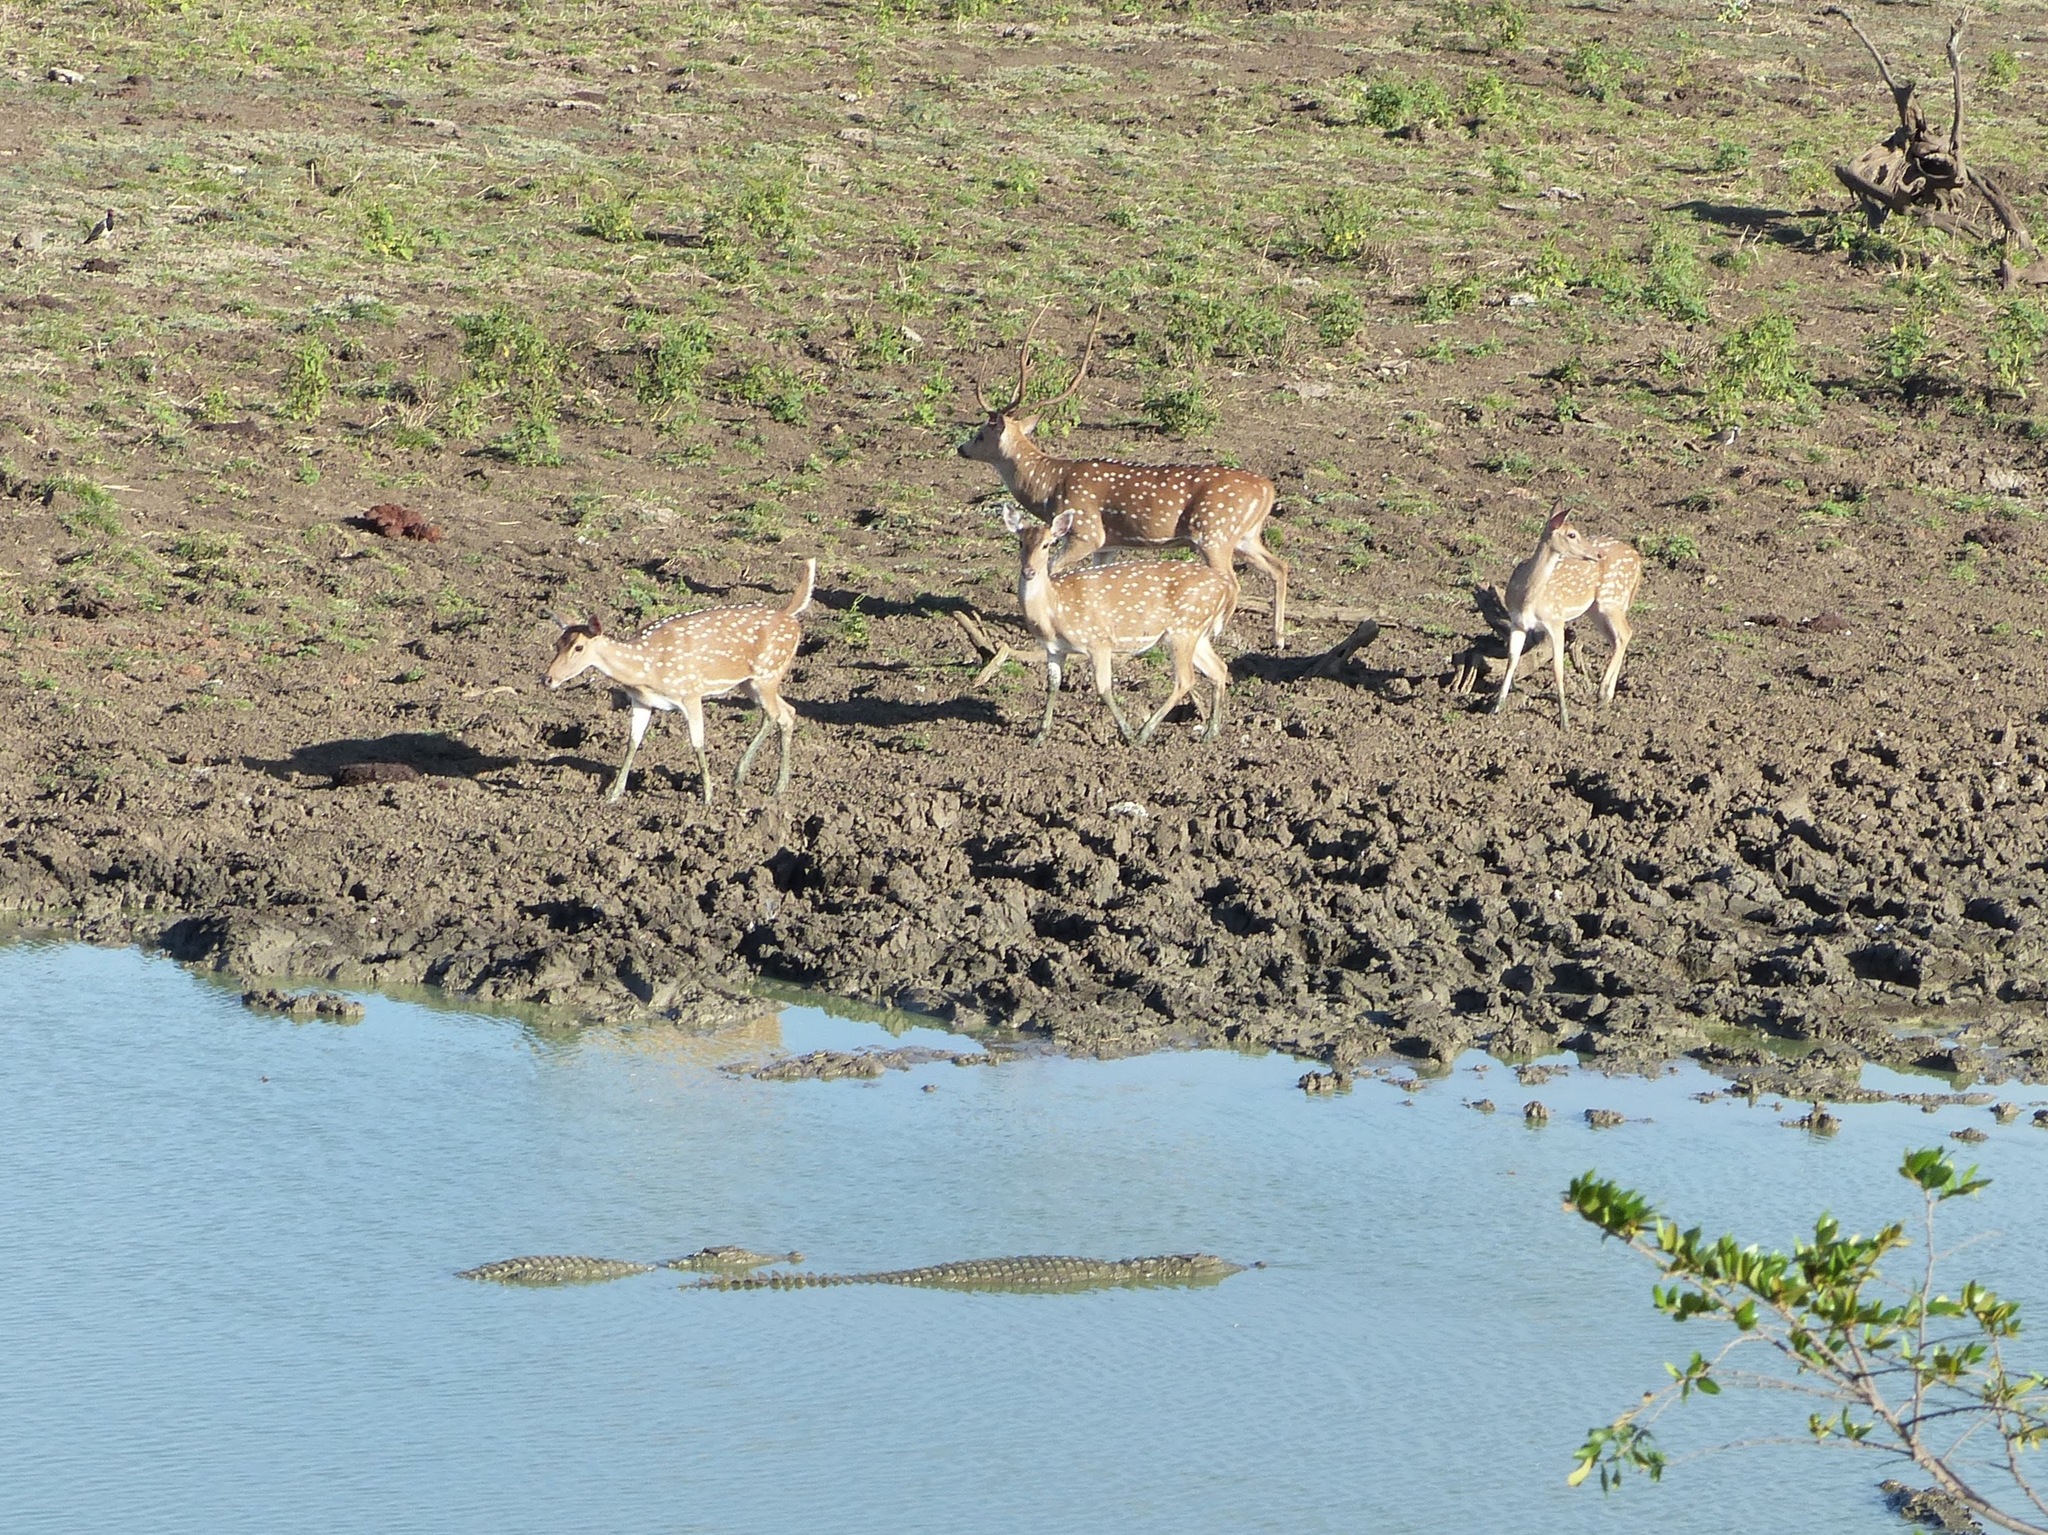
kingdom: Animalia
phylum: Chordata
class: Mammalia
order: Artiodactyla
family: Cervidae
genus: Axis
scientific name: Axis axis
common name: Chital
